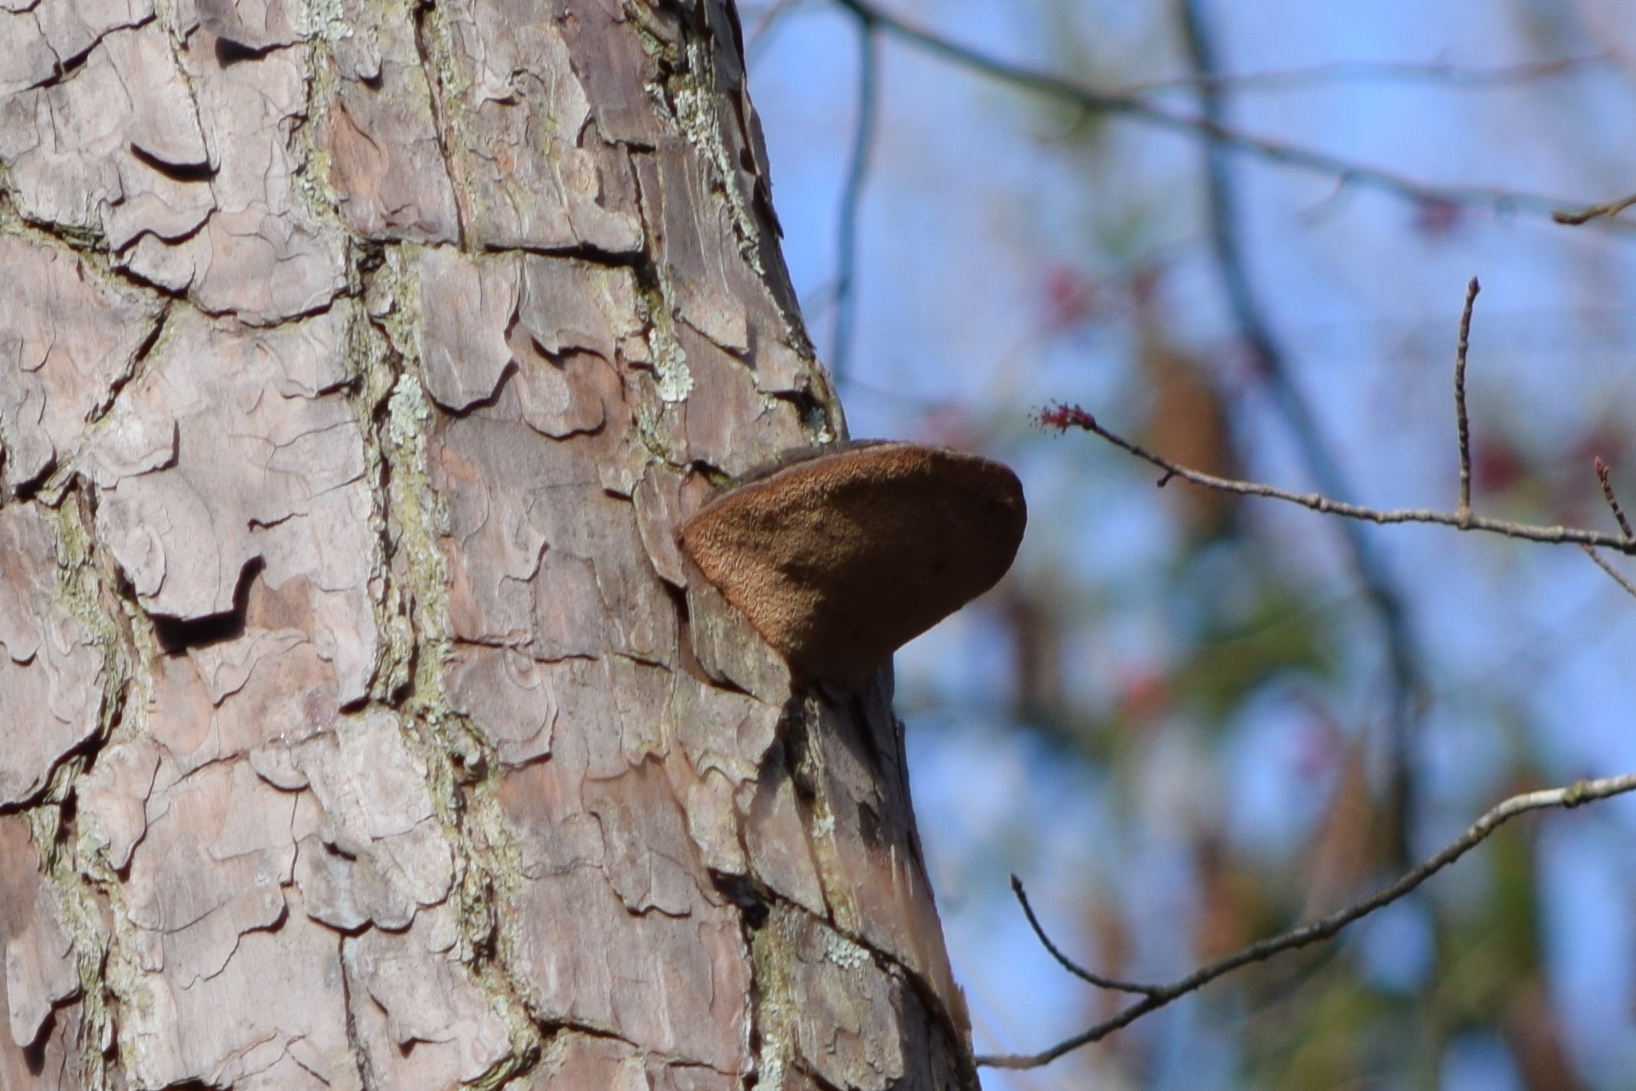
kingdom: Fungi
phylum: Basidiomycota
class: Agaricomycetes
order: Hymenochaetales
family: Hymenochaetaceae
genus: Porodaedalea
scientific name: Porodaedalea pini
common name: Pine bracket
